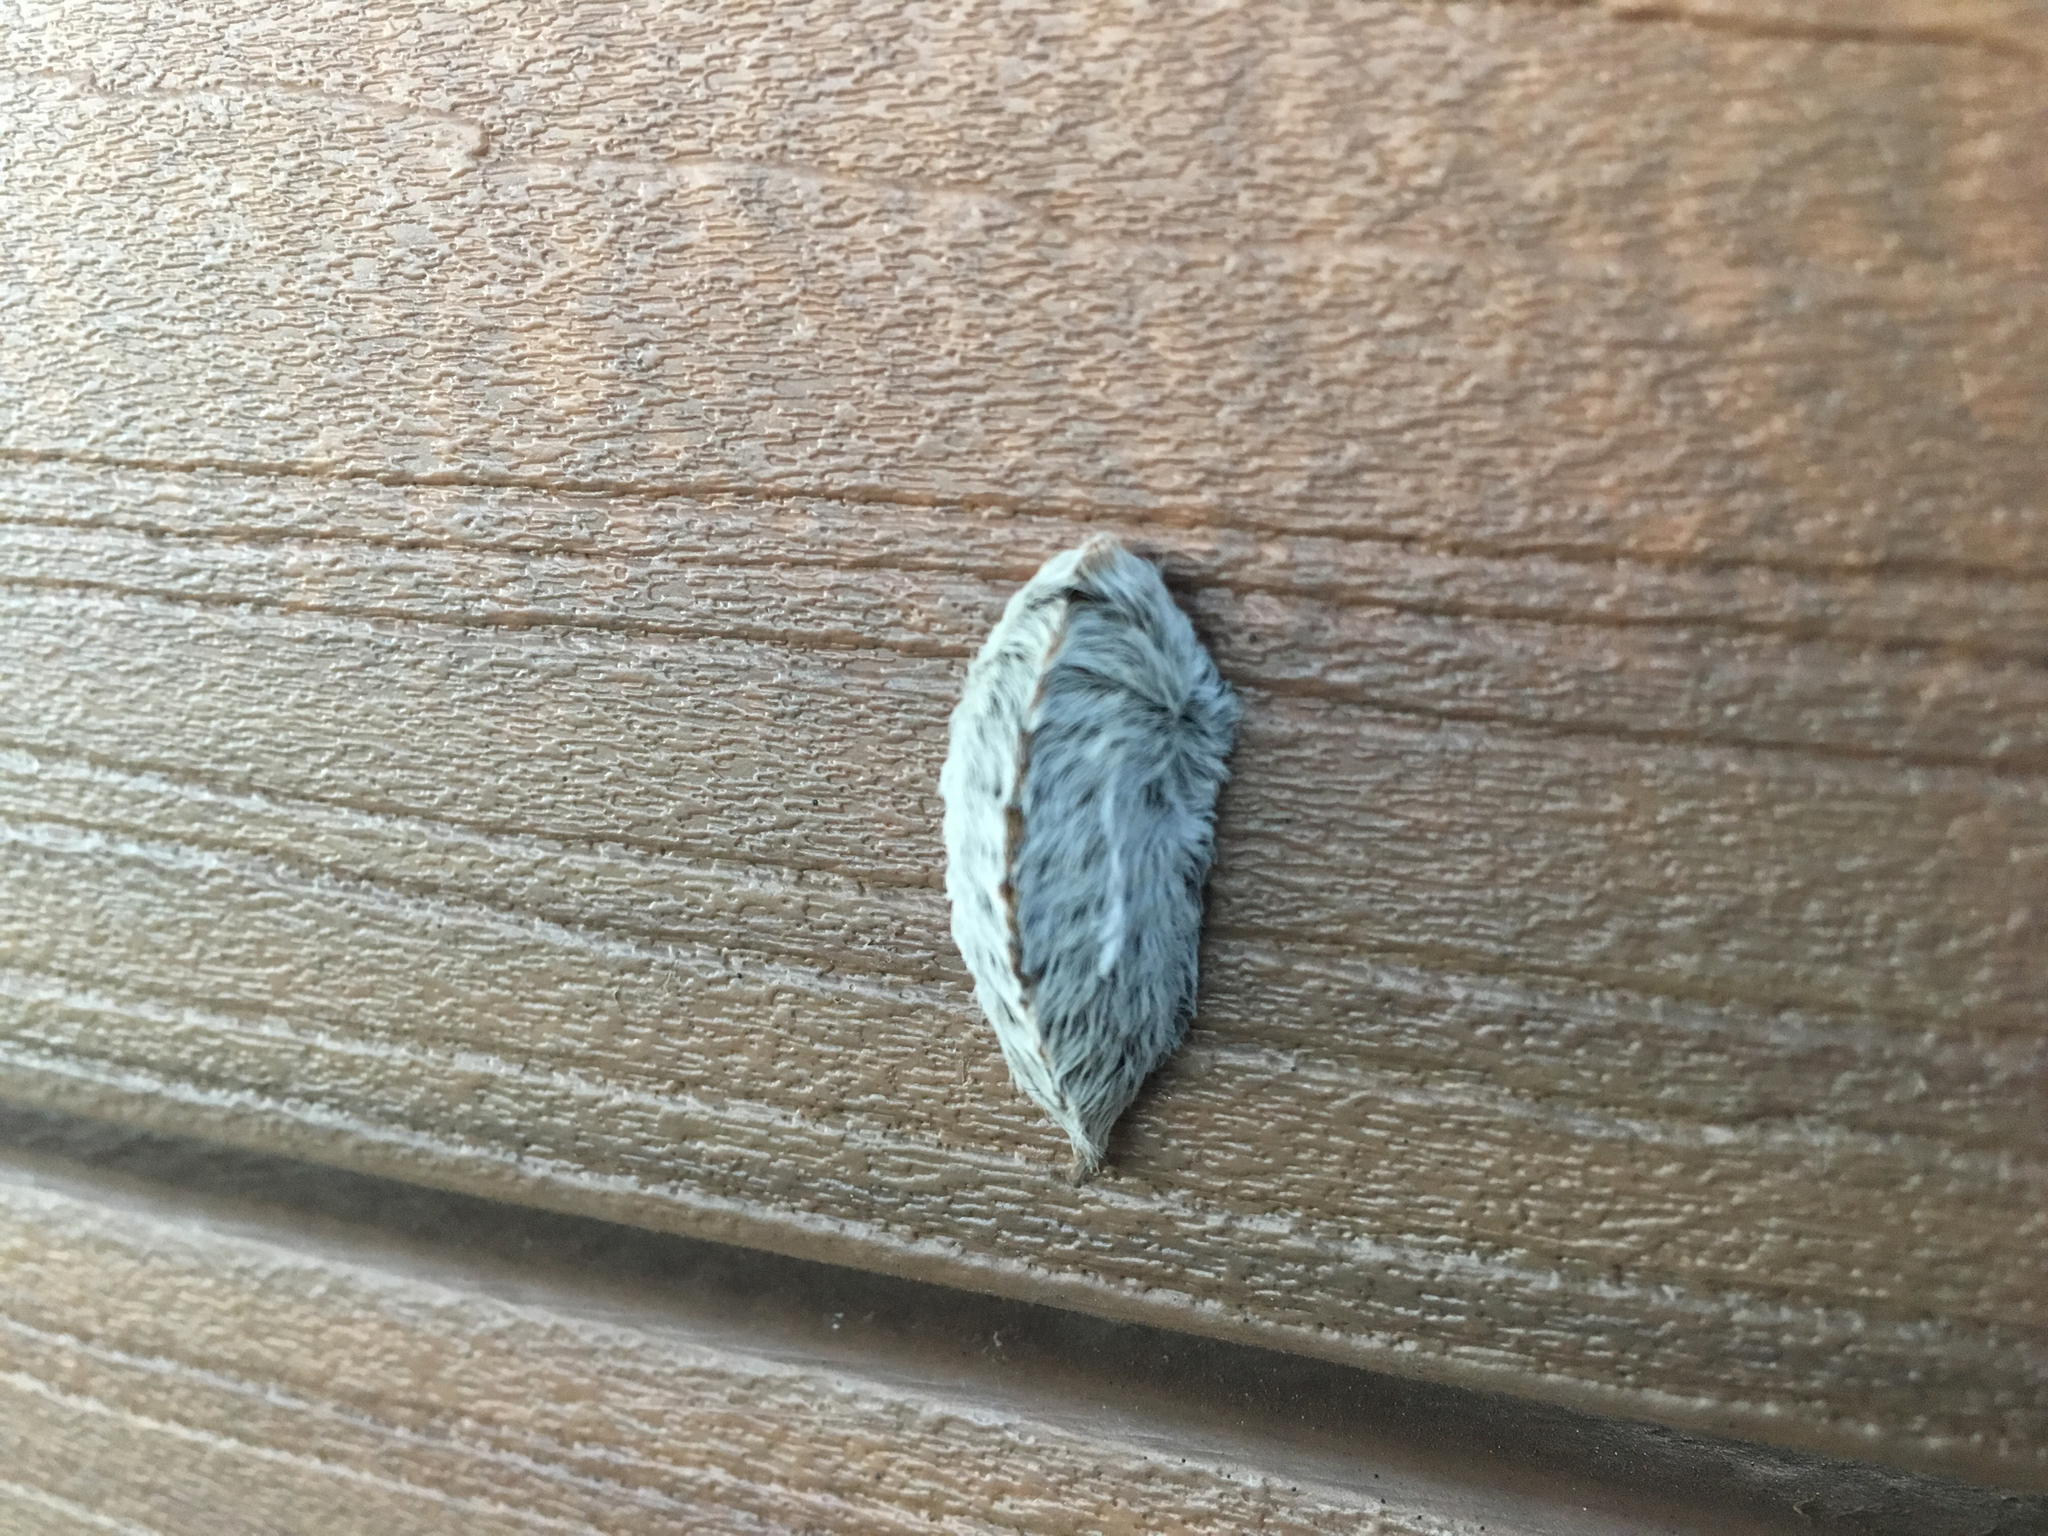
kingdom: Animalia
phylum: Arthropoda
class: Insecta
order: Lepidoptera
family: Megalopygidae
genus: Megalopyge
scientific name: Megalopyge opercularis
